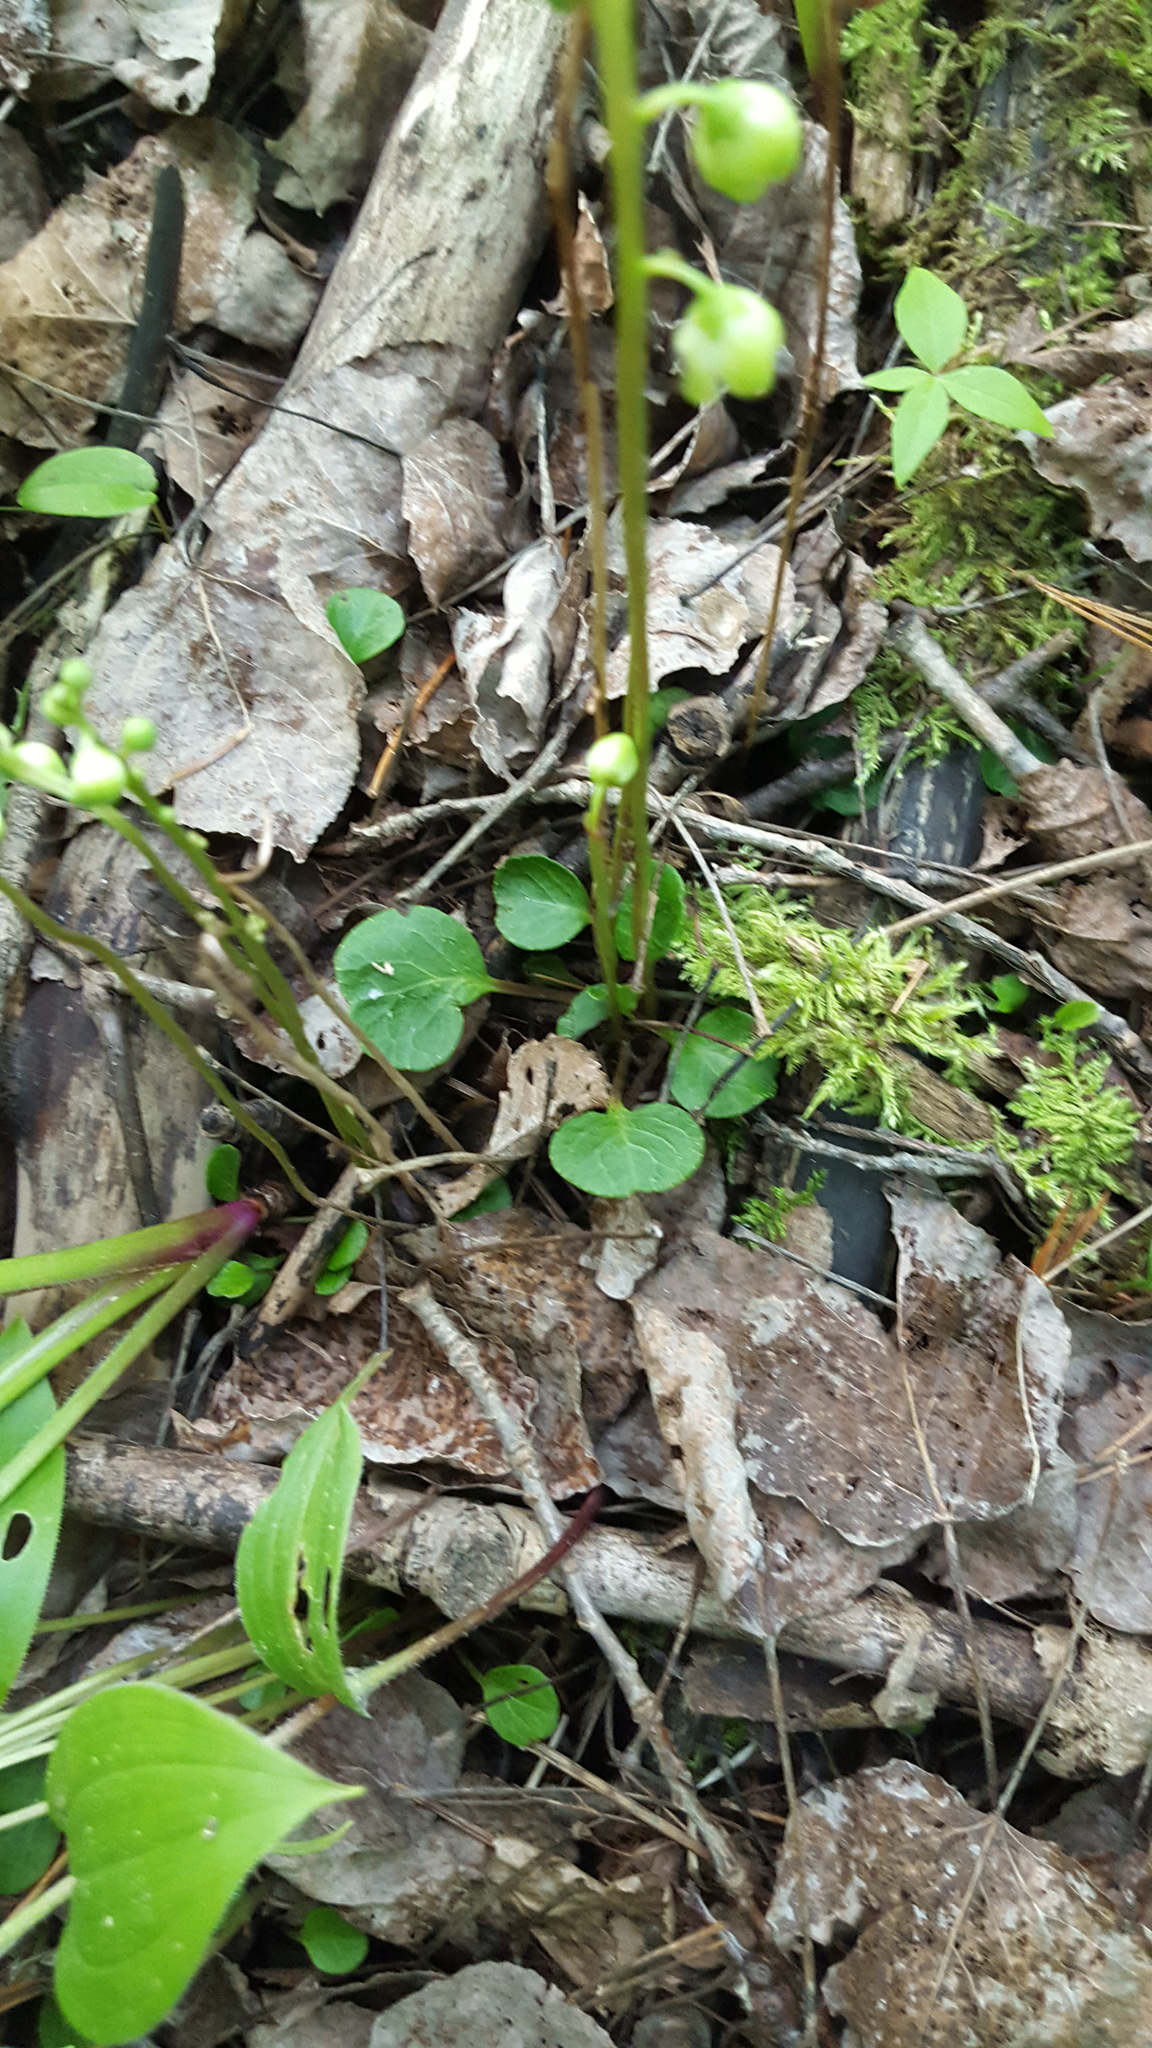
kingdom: Plantae
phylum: Tracheophyta
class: Magnoliopsida
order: Ericales
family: Ericaceae
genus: Pyrola
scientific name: Pyrola chlorantha
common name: Green wintergreen
